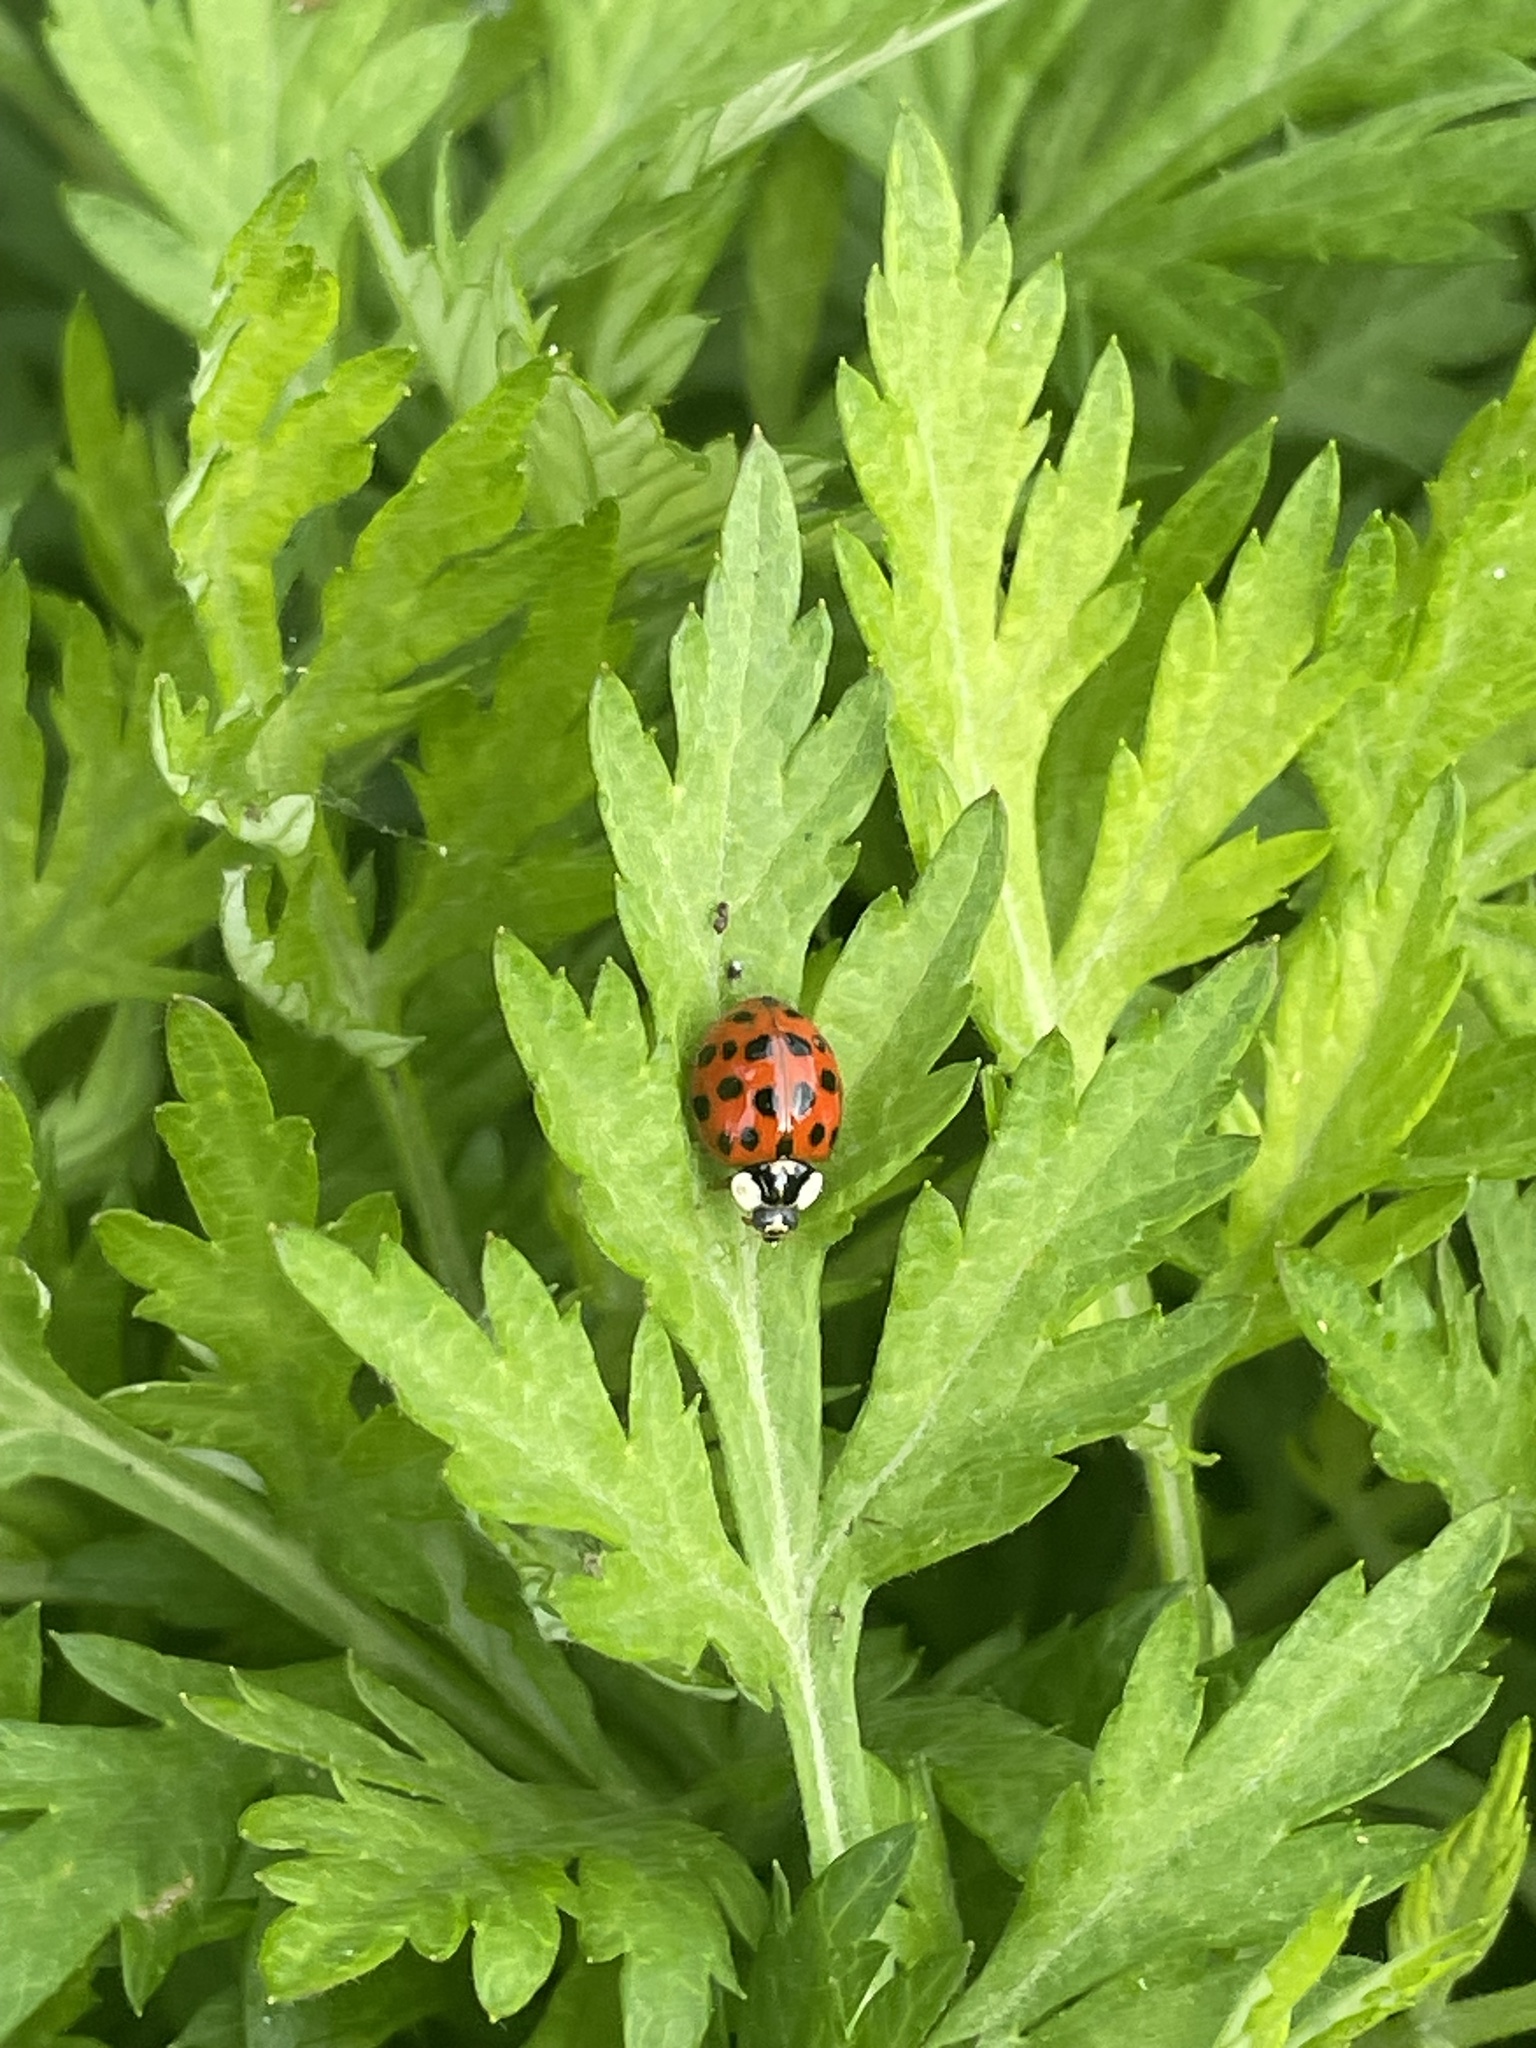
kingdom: Animalia
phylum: Arthropoda
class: Insecta
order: Coleoptera
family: Coccinellidae
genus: Harmonia
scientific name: Harmonia axyridis
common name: Harlequin ladybird
